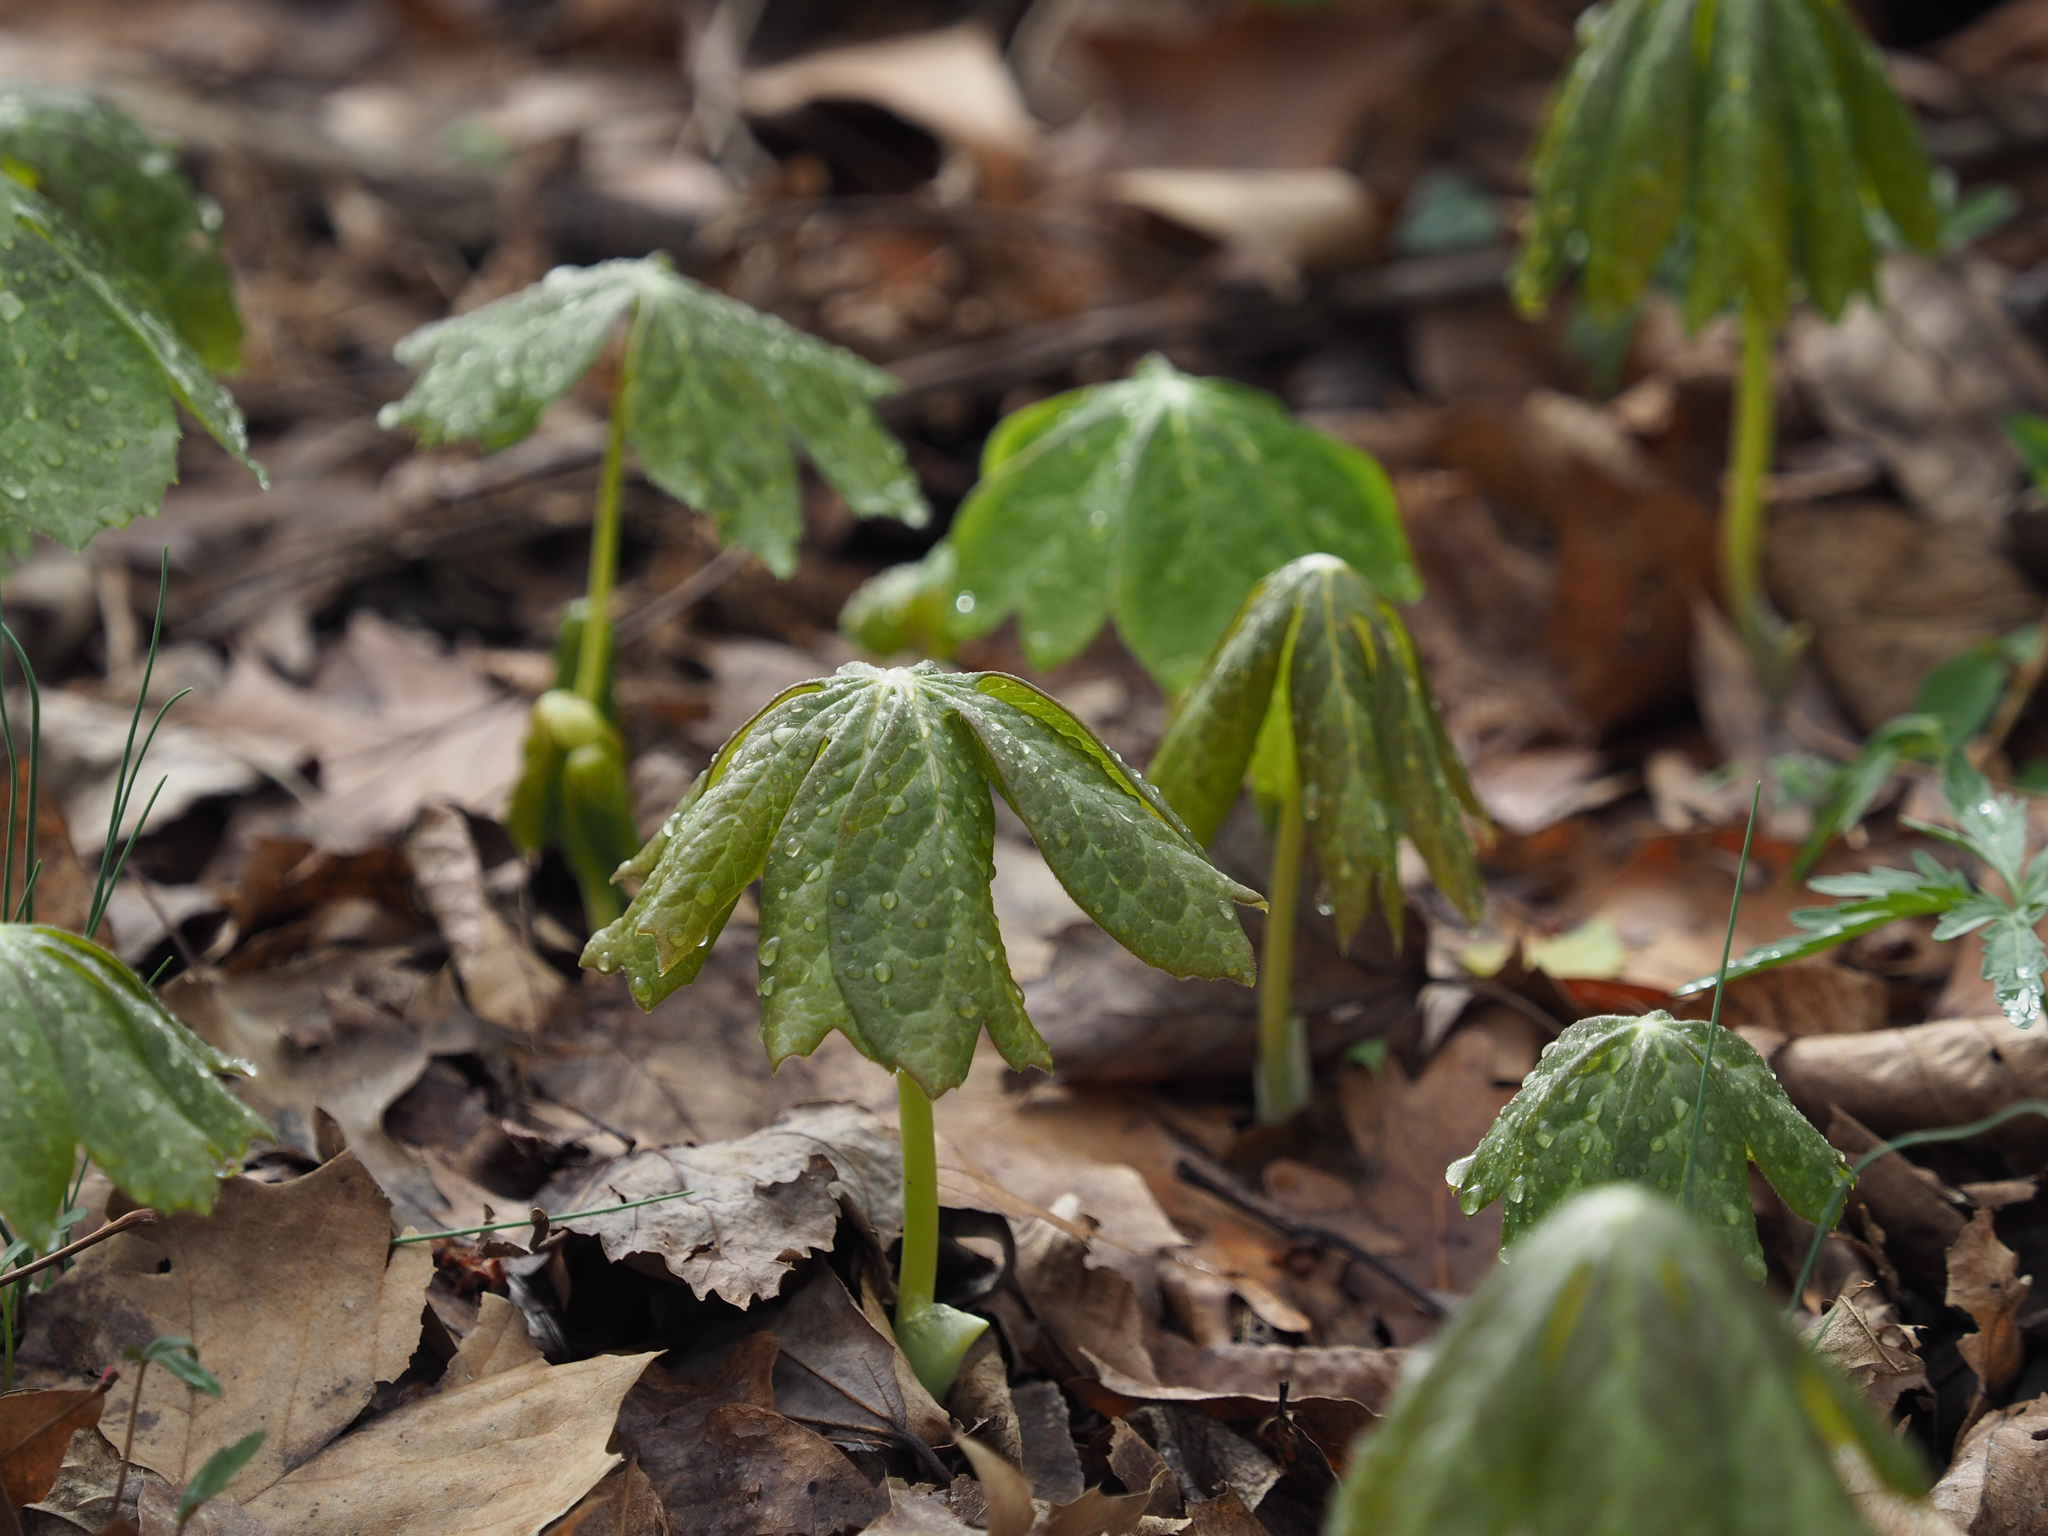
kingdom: Plantae
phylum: Tracheophyta
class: Magnoliopsida
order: Ranunculales
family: Berberidaceae
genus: Podophyllum
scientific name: Podophyllum peltatum
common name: Wild mandrake
